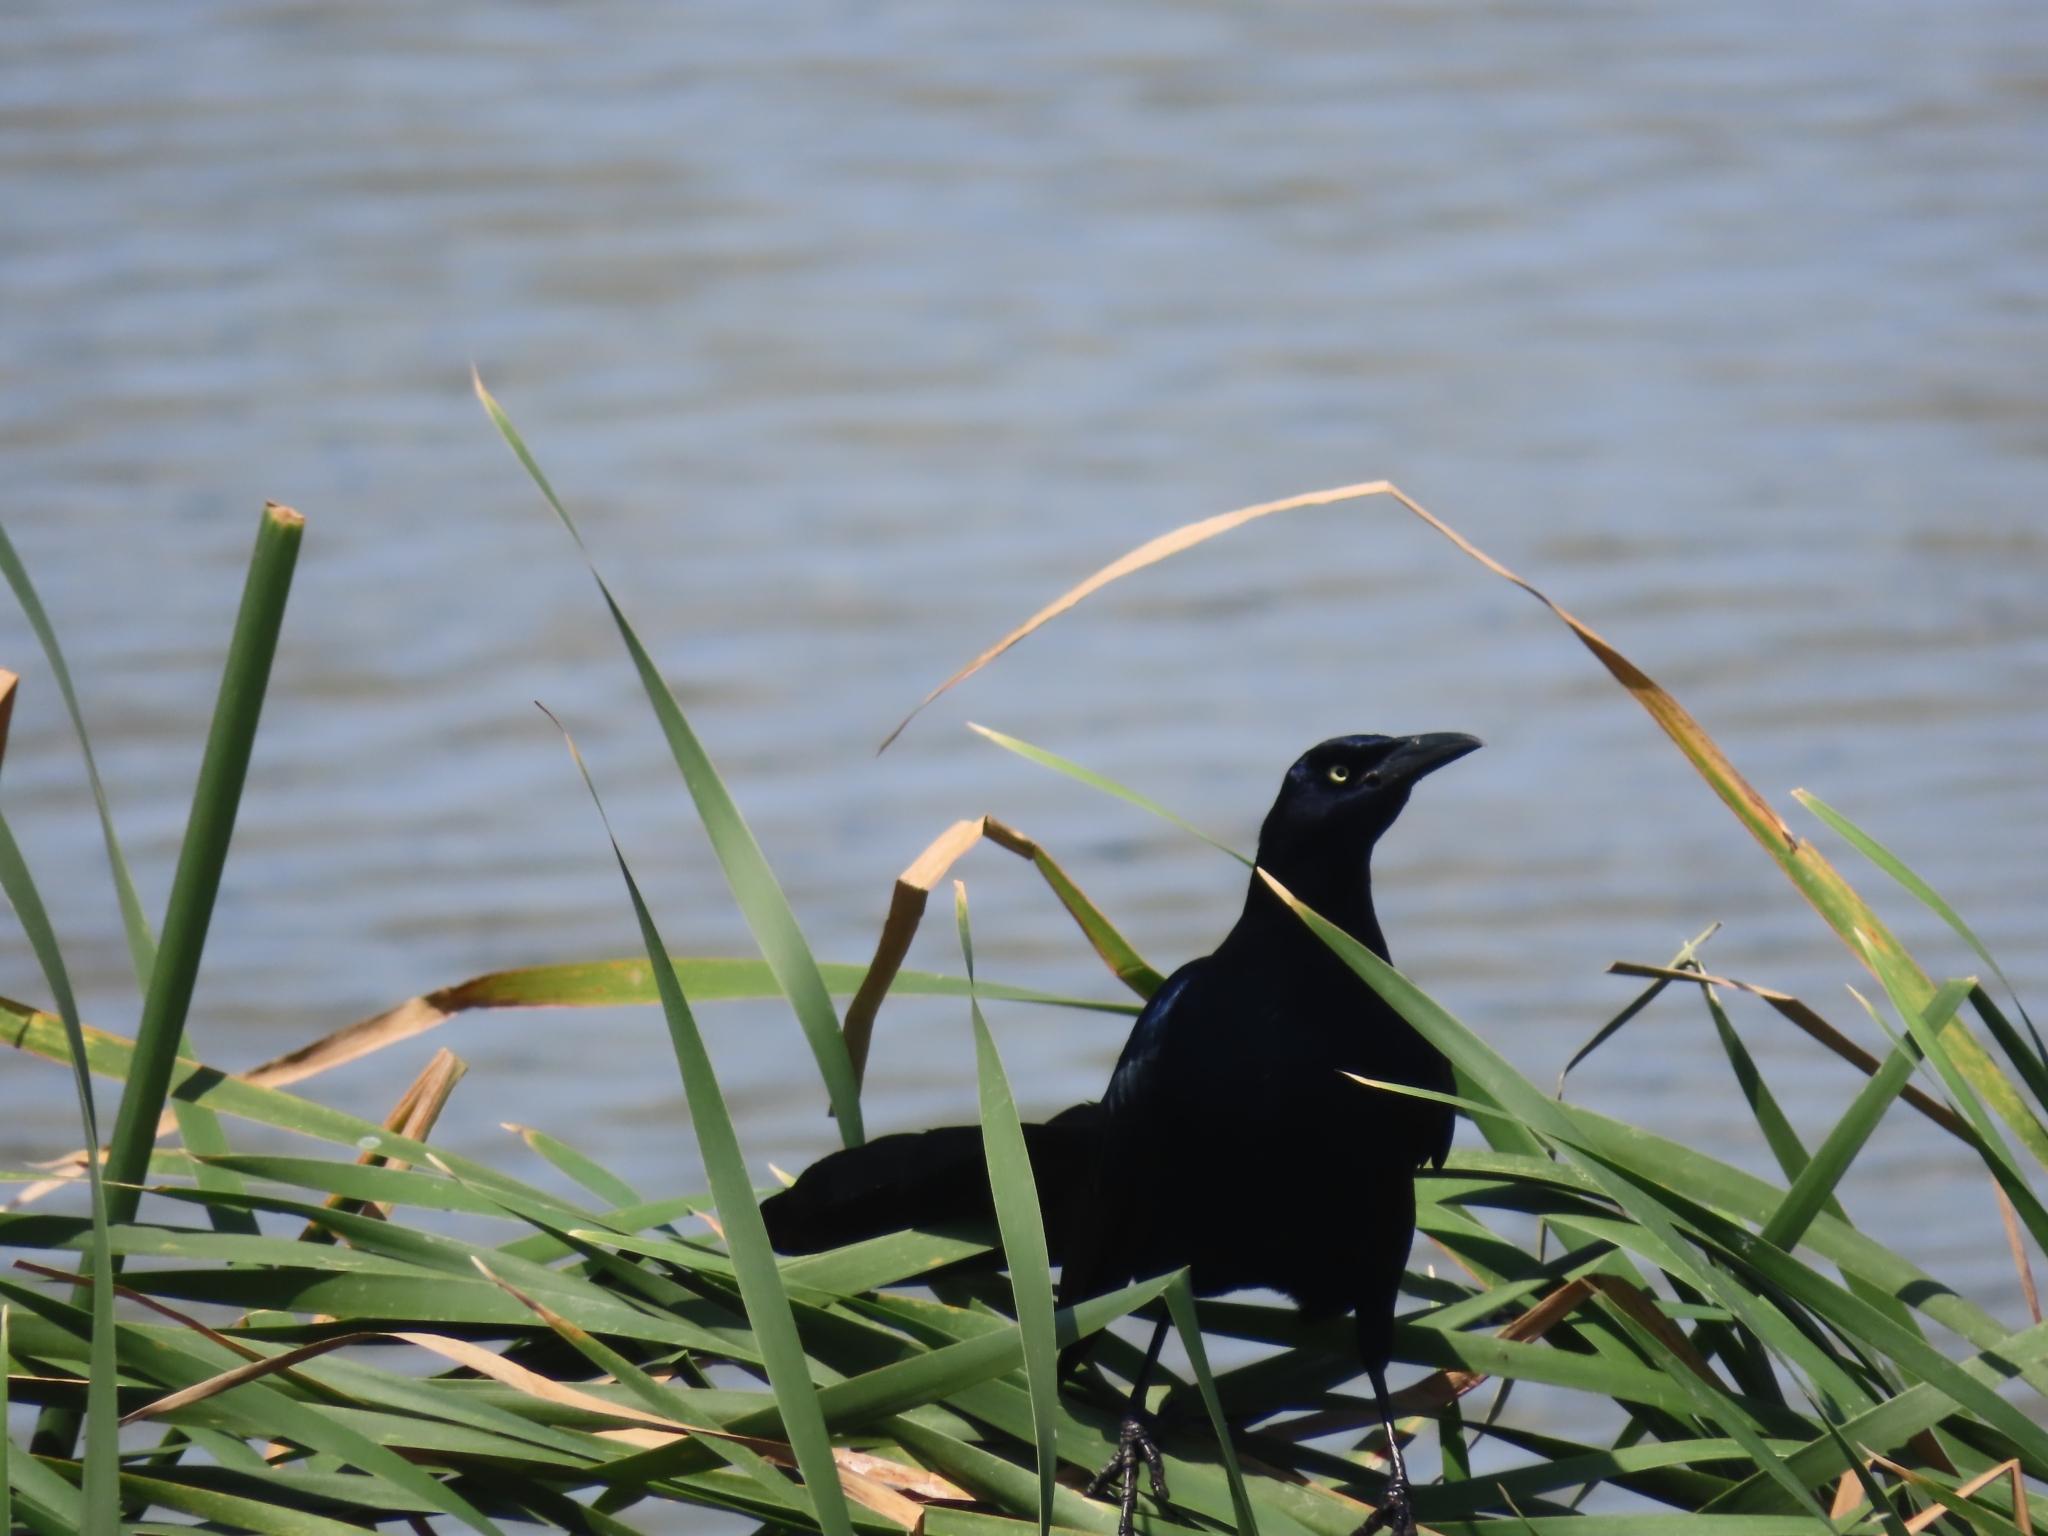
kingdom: Animalia
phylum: Chordata
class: Aves
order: Passeriformes
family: Icteridae
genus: Quiscalus
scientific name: Quiscalus mexicanus
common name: Great-tailed grackle
